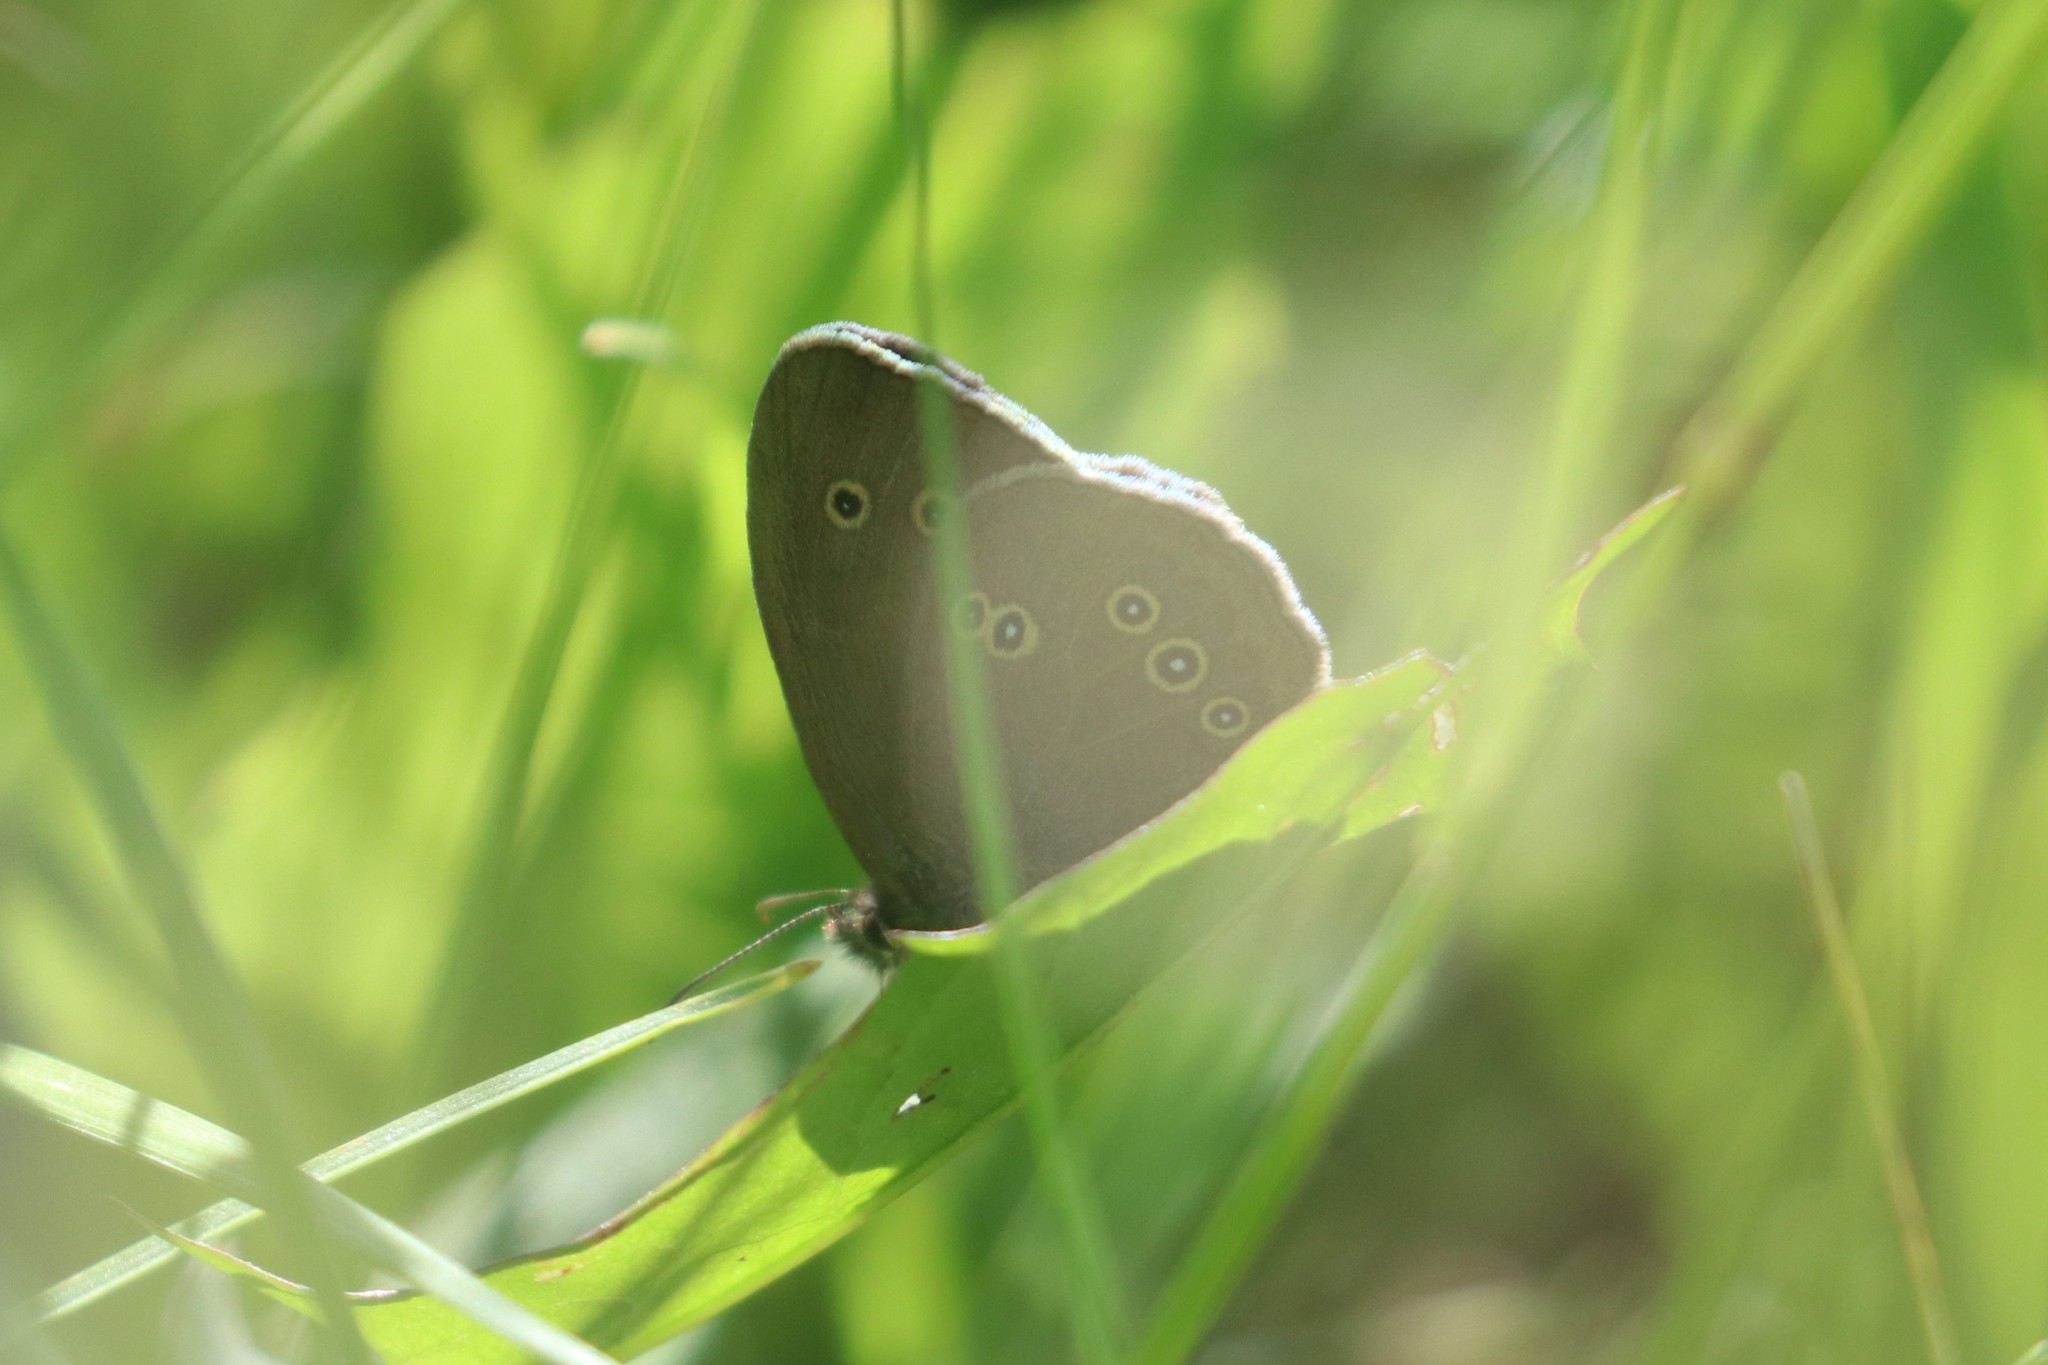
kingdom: Animalia
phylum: Arthropoda
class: Insecta
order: Lepidoptera
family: Nymphalidae
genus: Aphantopus
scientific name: Aphantopus hyperantus
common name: Ringlet
